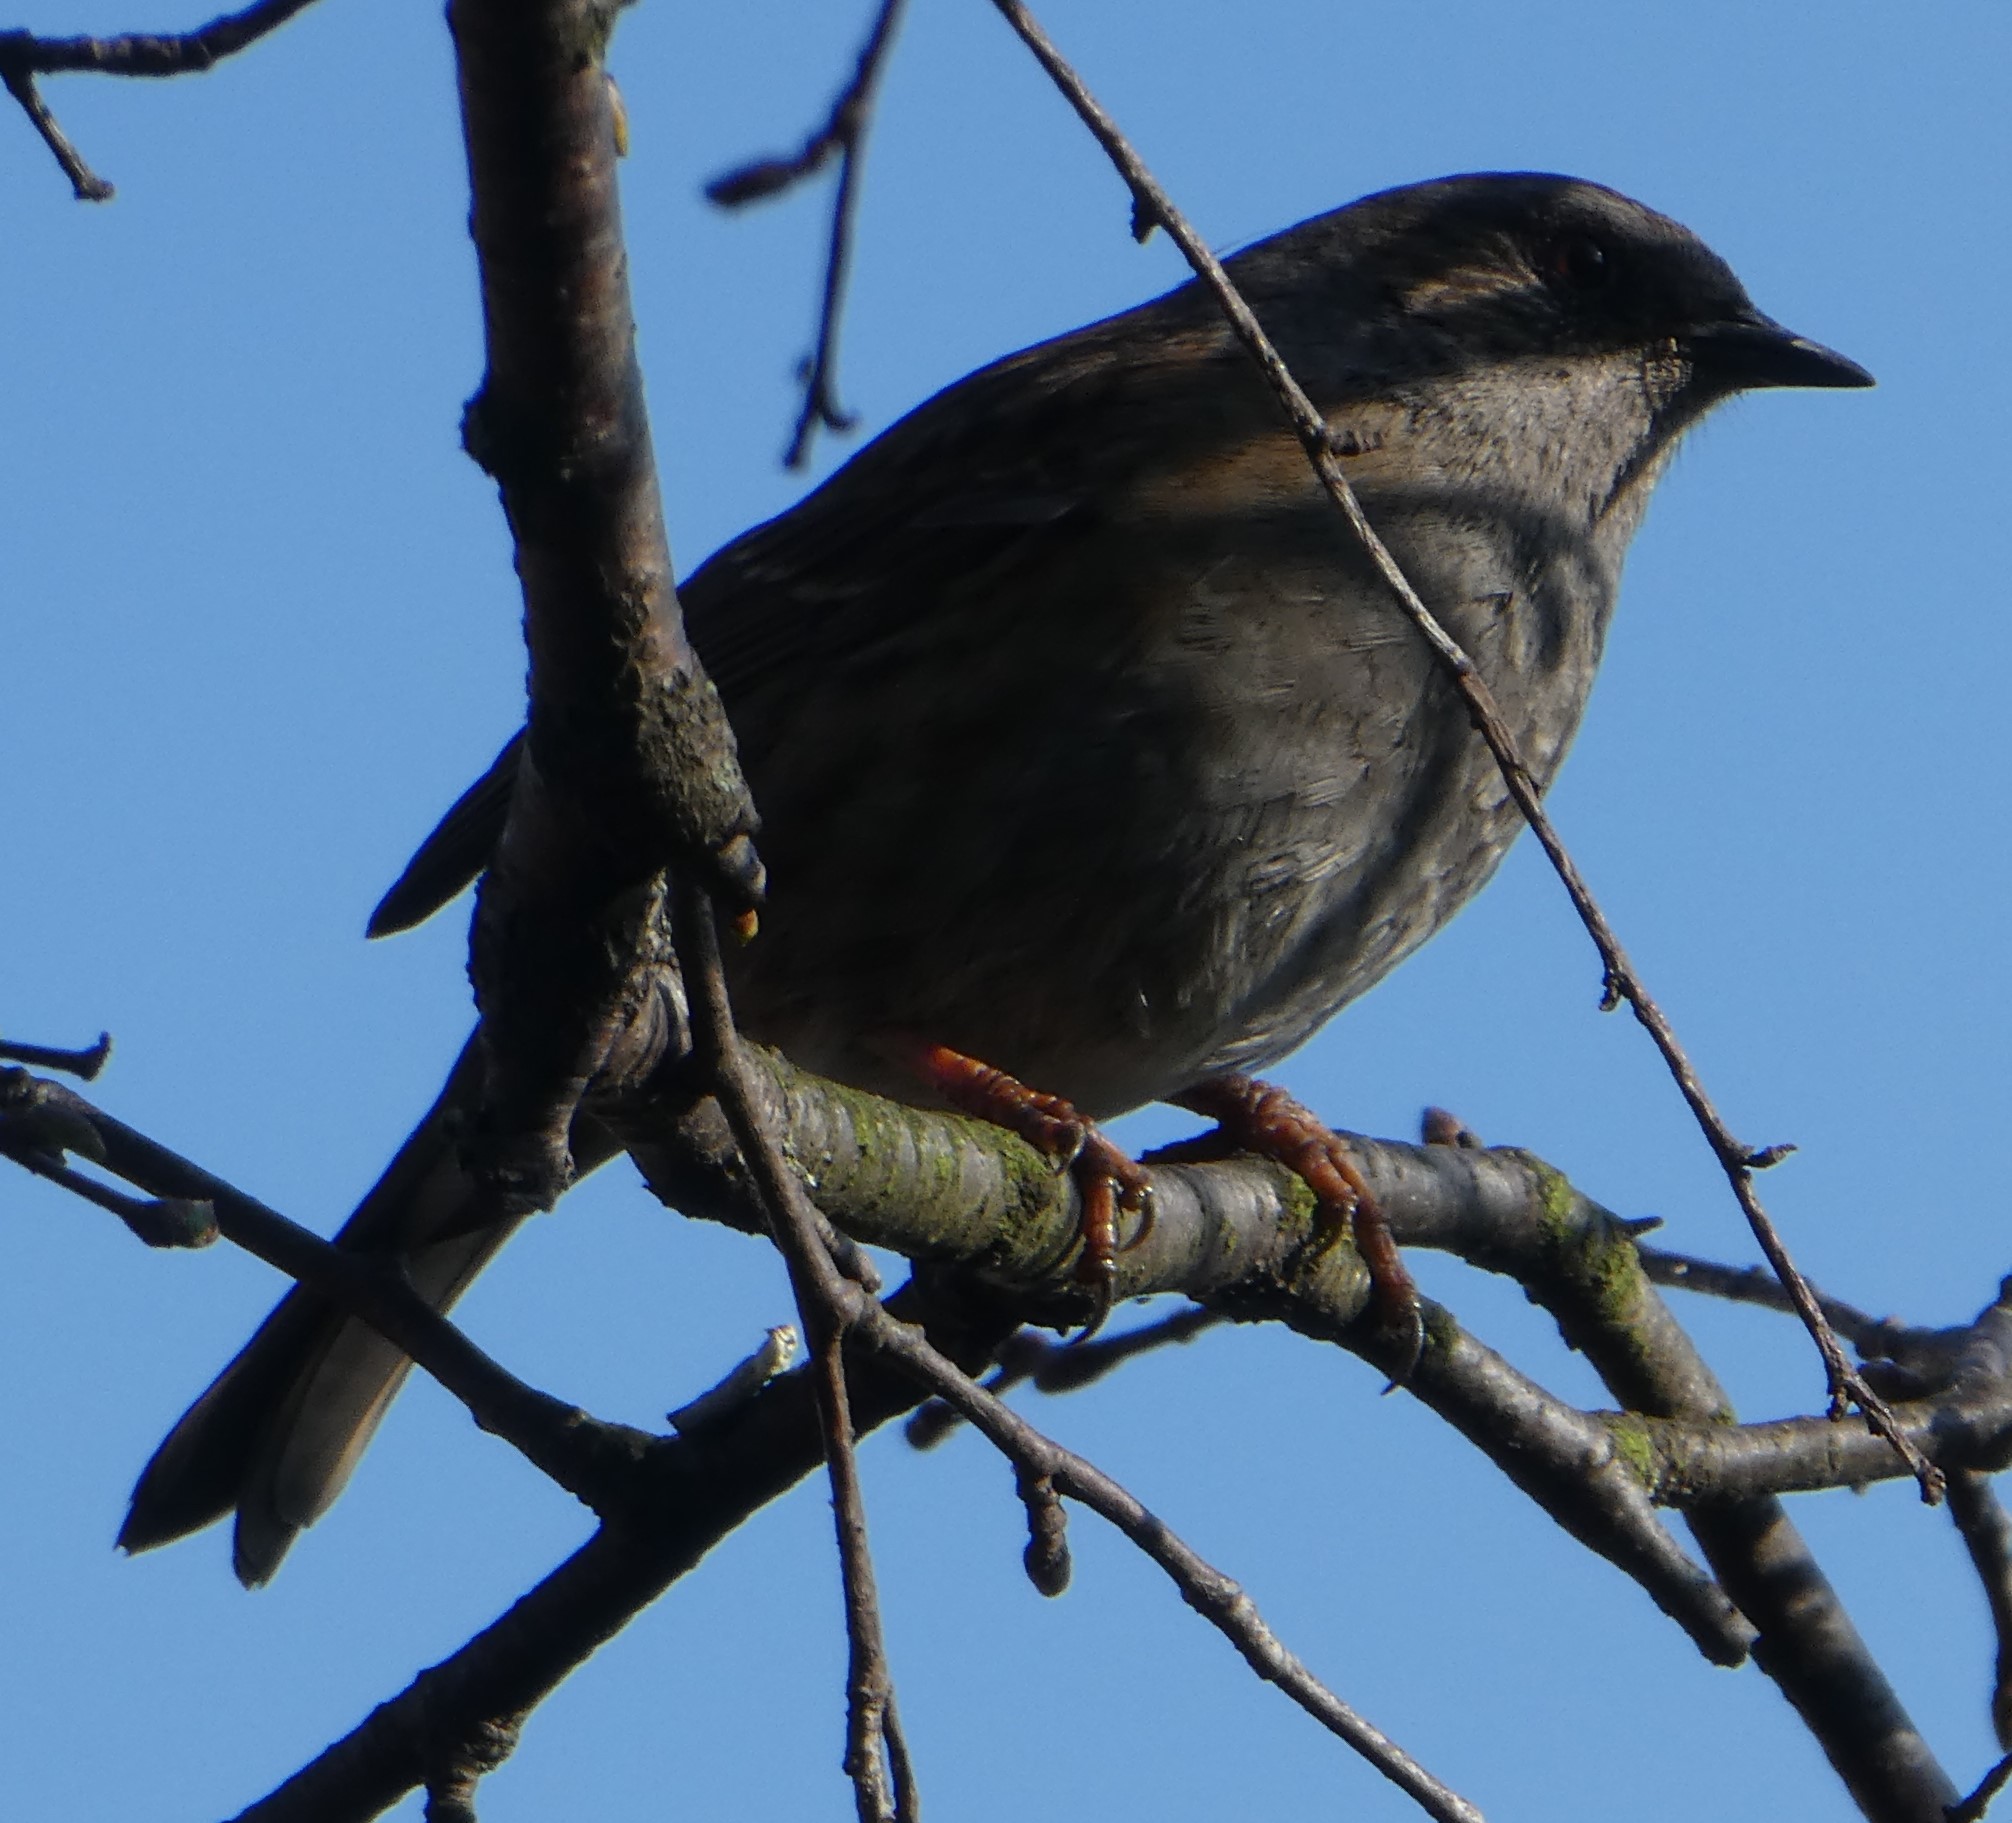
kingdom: Animalia
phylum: Chordata
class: Aves
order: Passeriformes
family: Prunellidae
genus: Prunella
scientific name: Prunella modularis
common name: Dunnock
